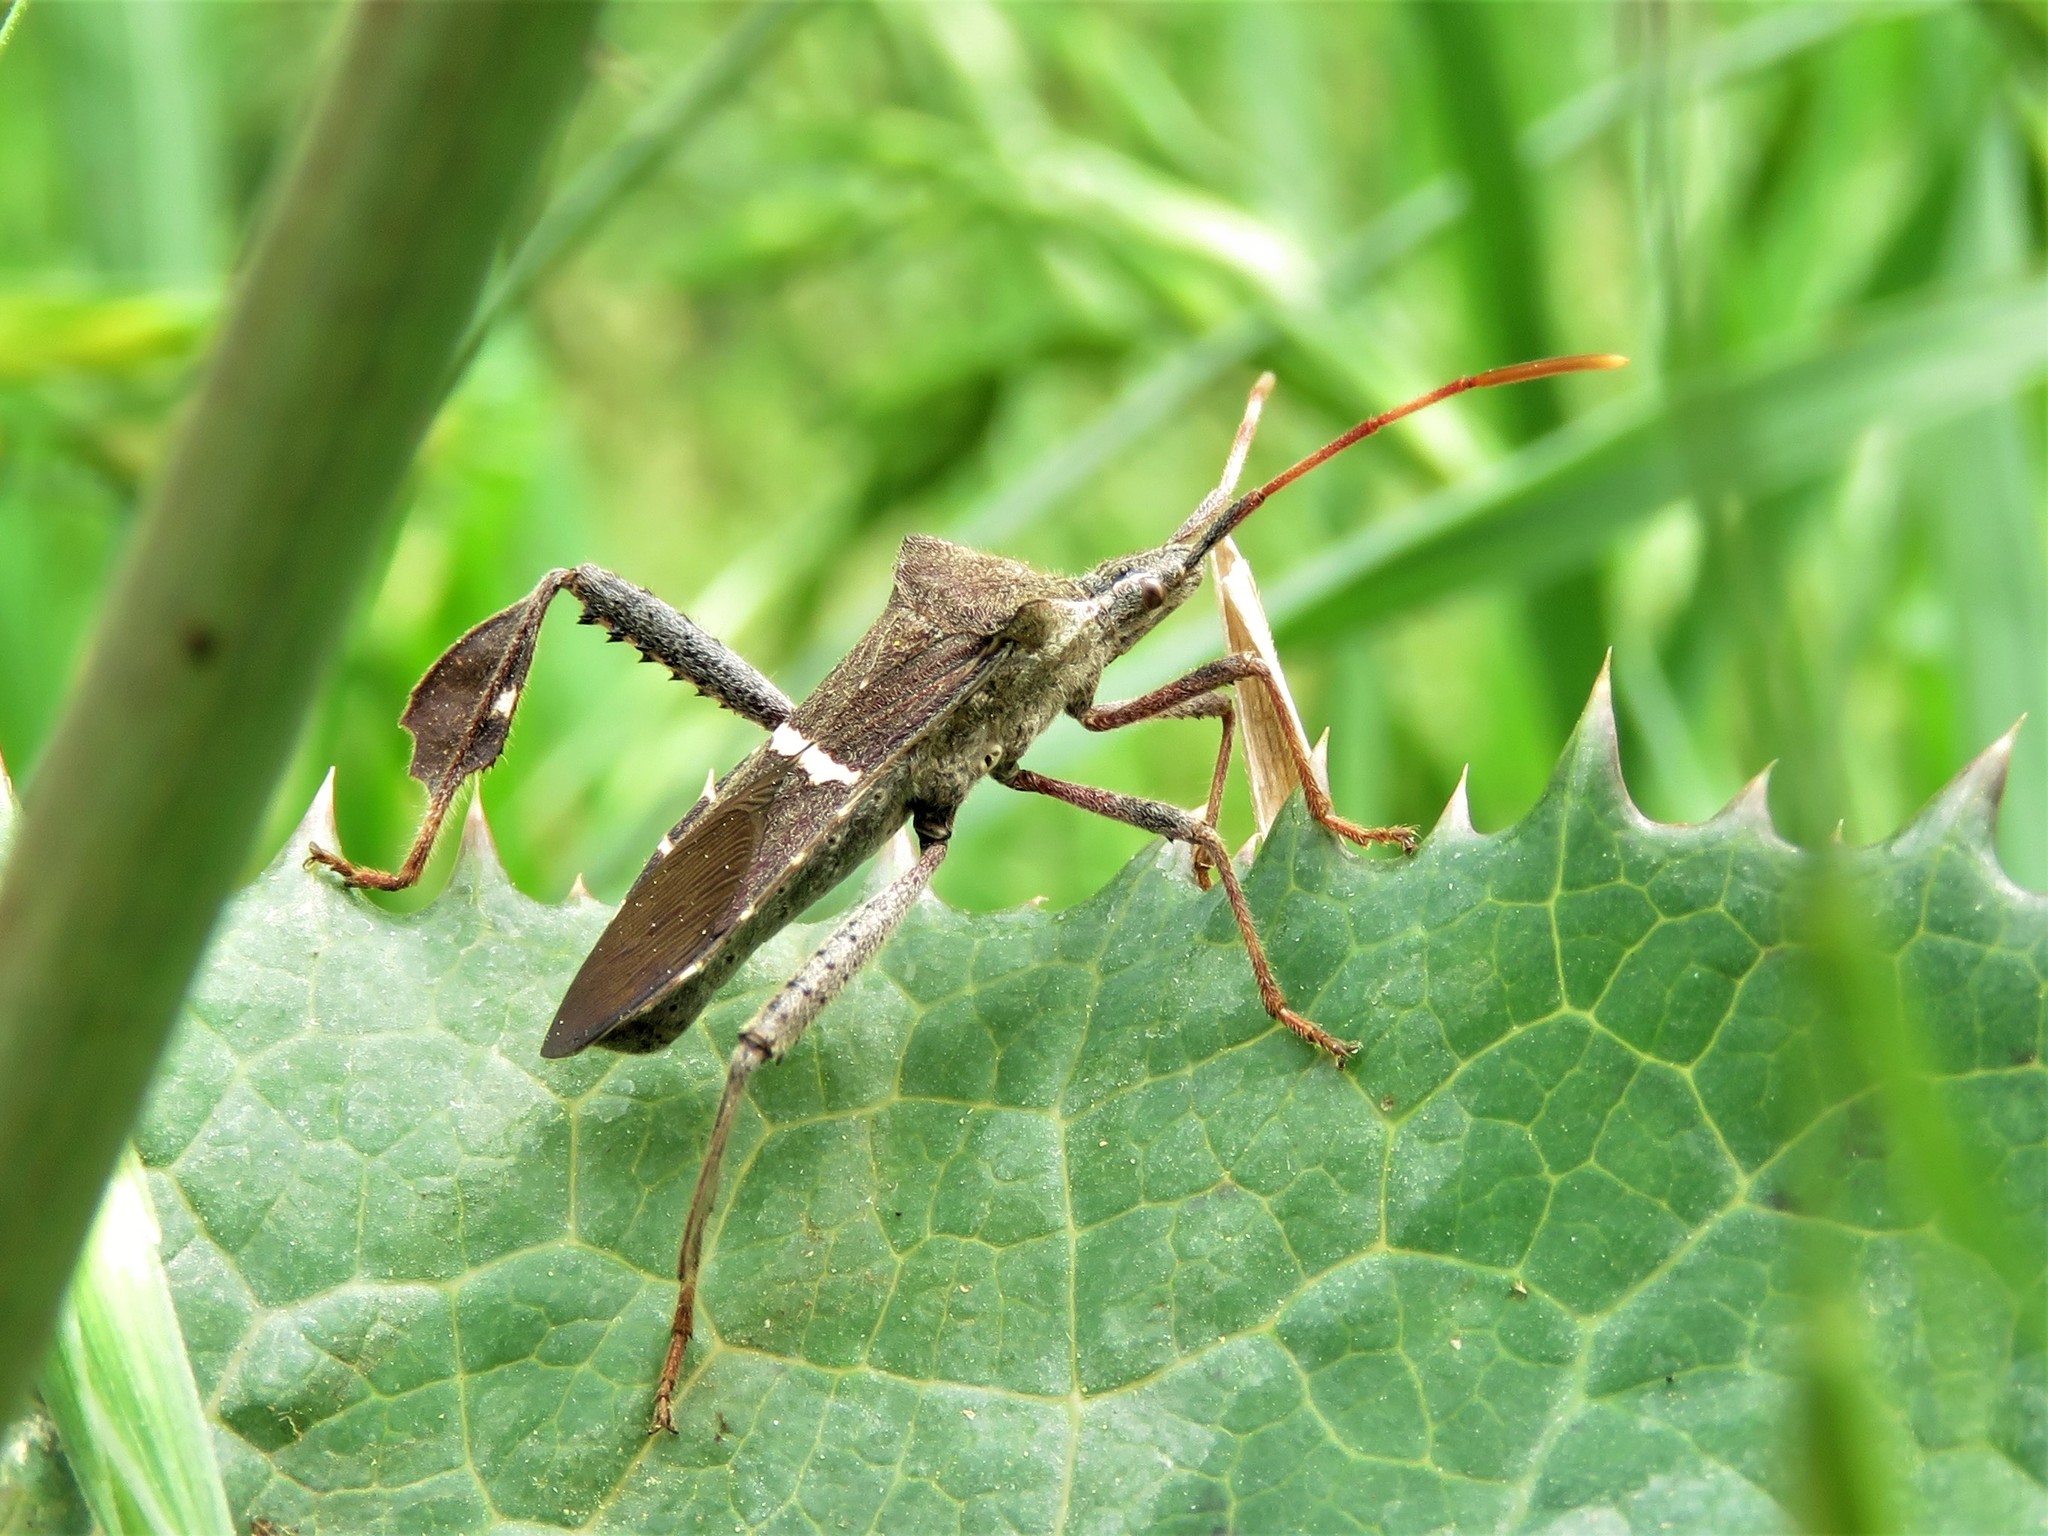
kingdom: Animalia
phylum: Arthropoda
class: Insecta
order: Hemiptera
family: Coreidae
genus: Leptoglossus
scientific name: Leptoglossus phyllopus
